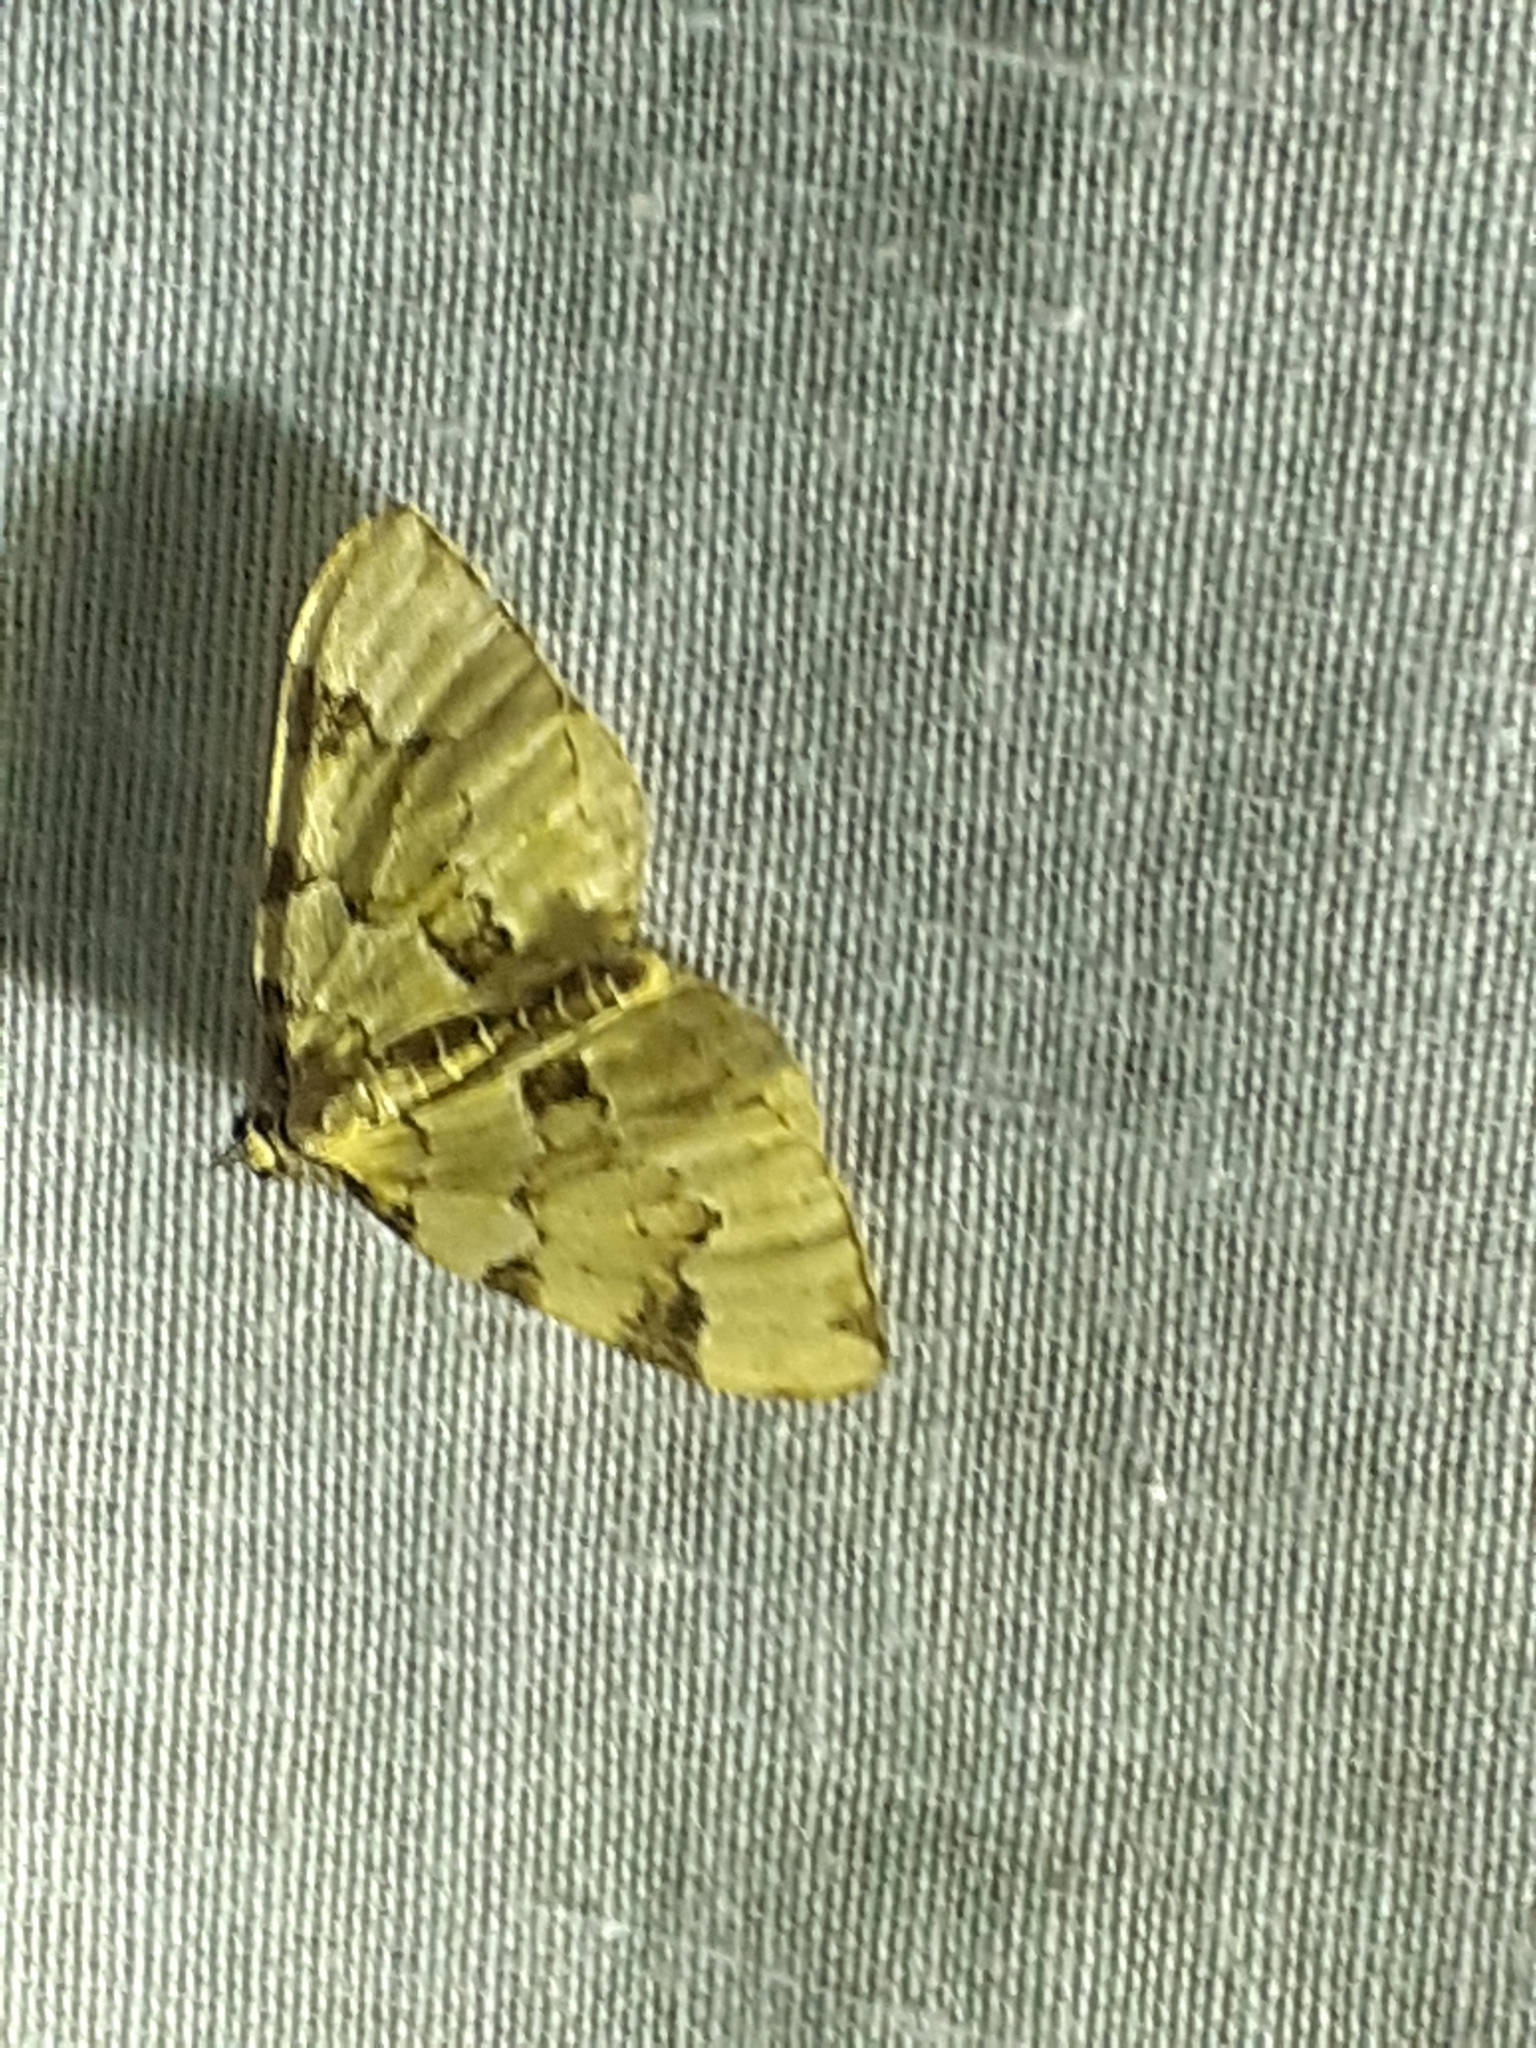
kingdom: Animalia
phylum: Arthropoda
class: Insecta
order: Lepidoptera
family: Geometridae
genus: Colostygia
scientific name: Colostygia pectinataria
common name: Green carpet
